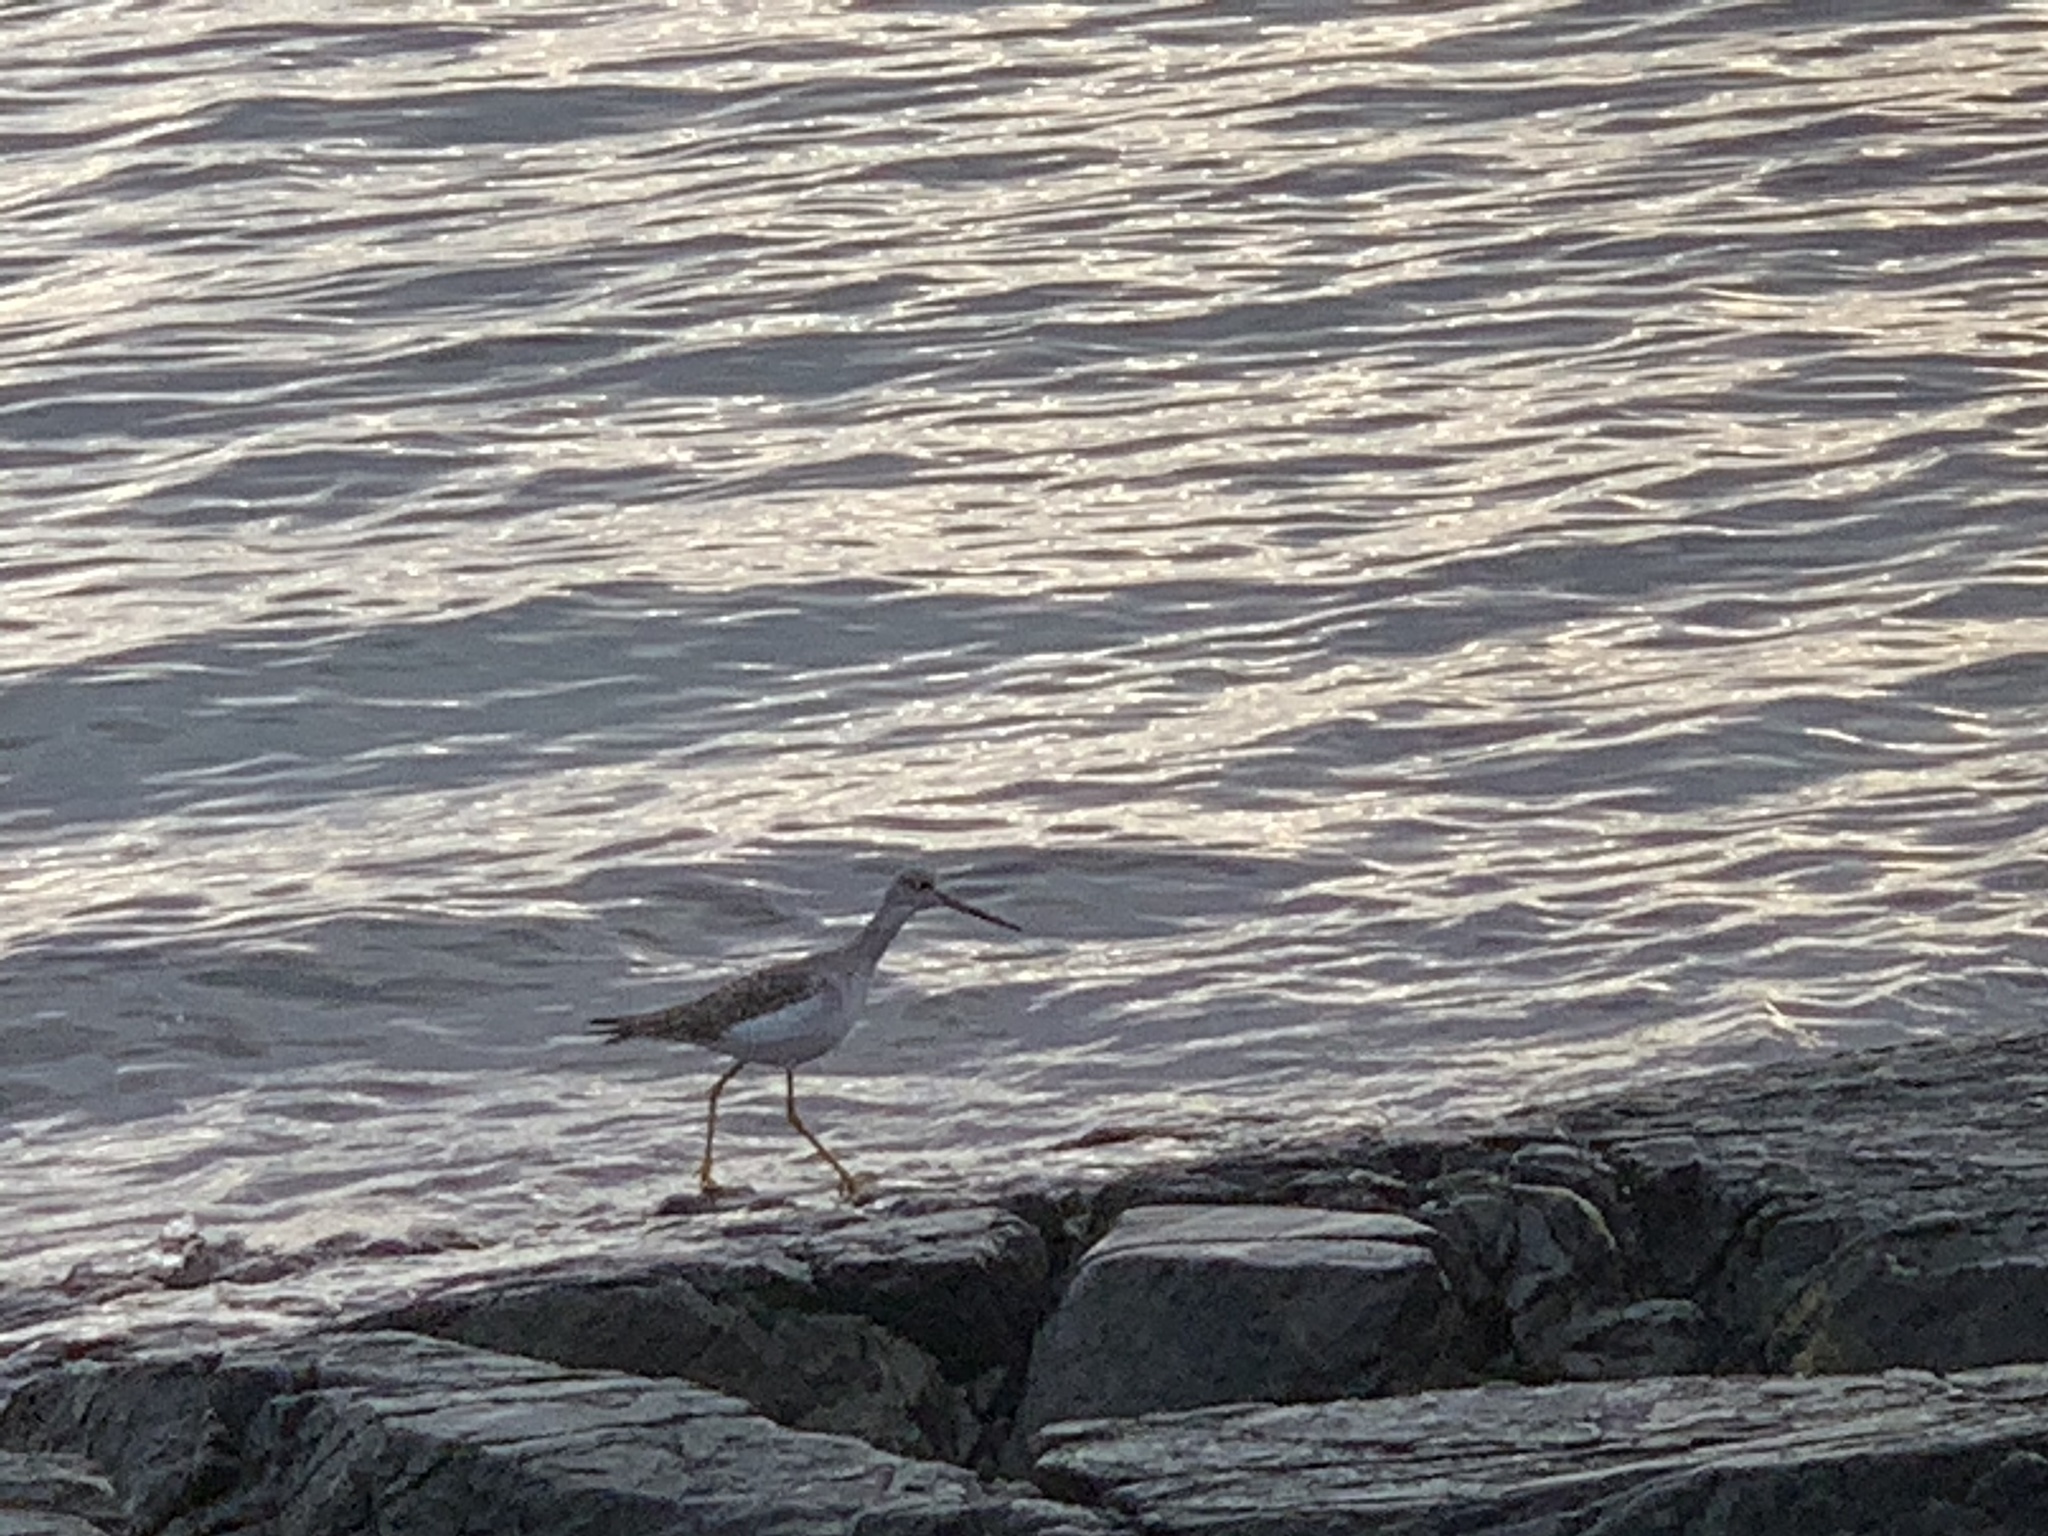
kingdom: Animalia
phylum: Chordata
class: Aves
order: Charadriiformes
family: Scolopacidae
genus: Tringa
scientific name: Tringa melanoleuca
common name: Greater yellowlegs
